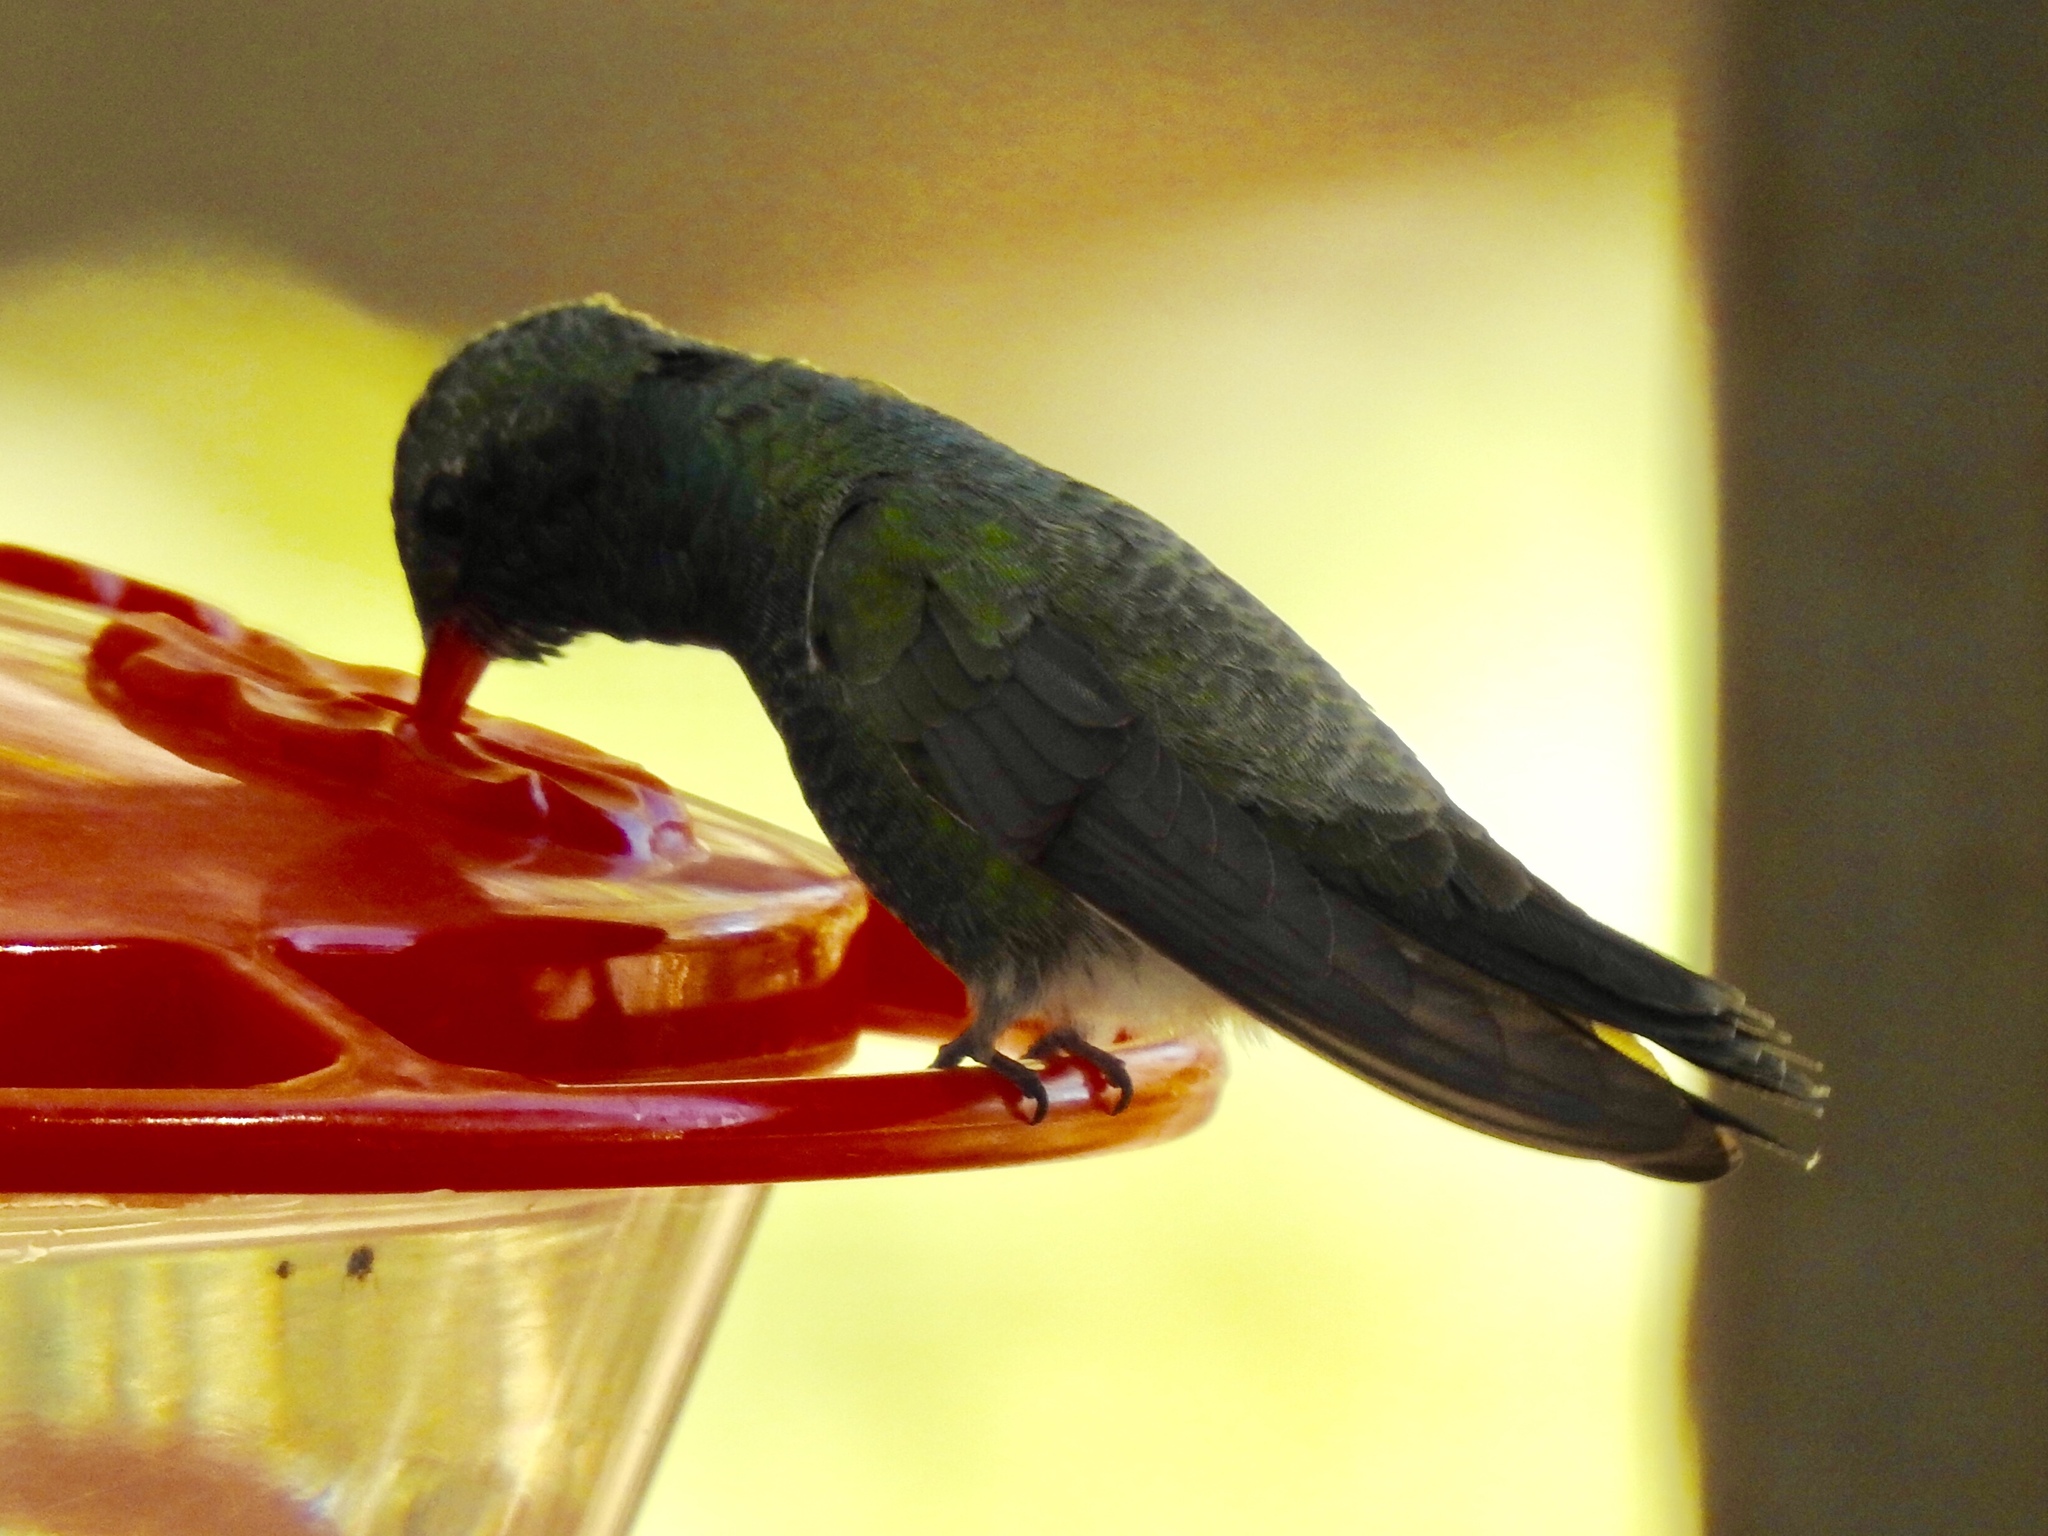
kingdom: Animalia
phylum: Chordata
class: Aves
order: Apodiformes
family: Trochilidae
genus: Cynanthus
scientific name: Cynanthus latirostris
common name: Broad-billed hummingbird
